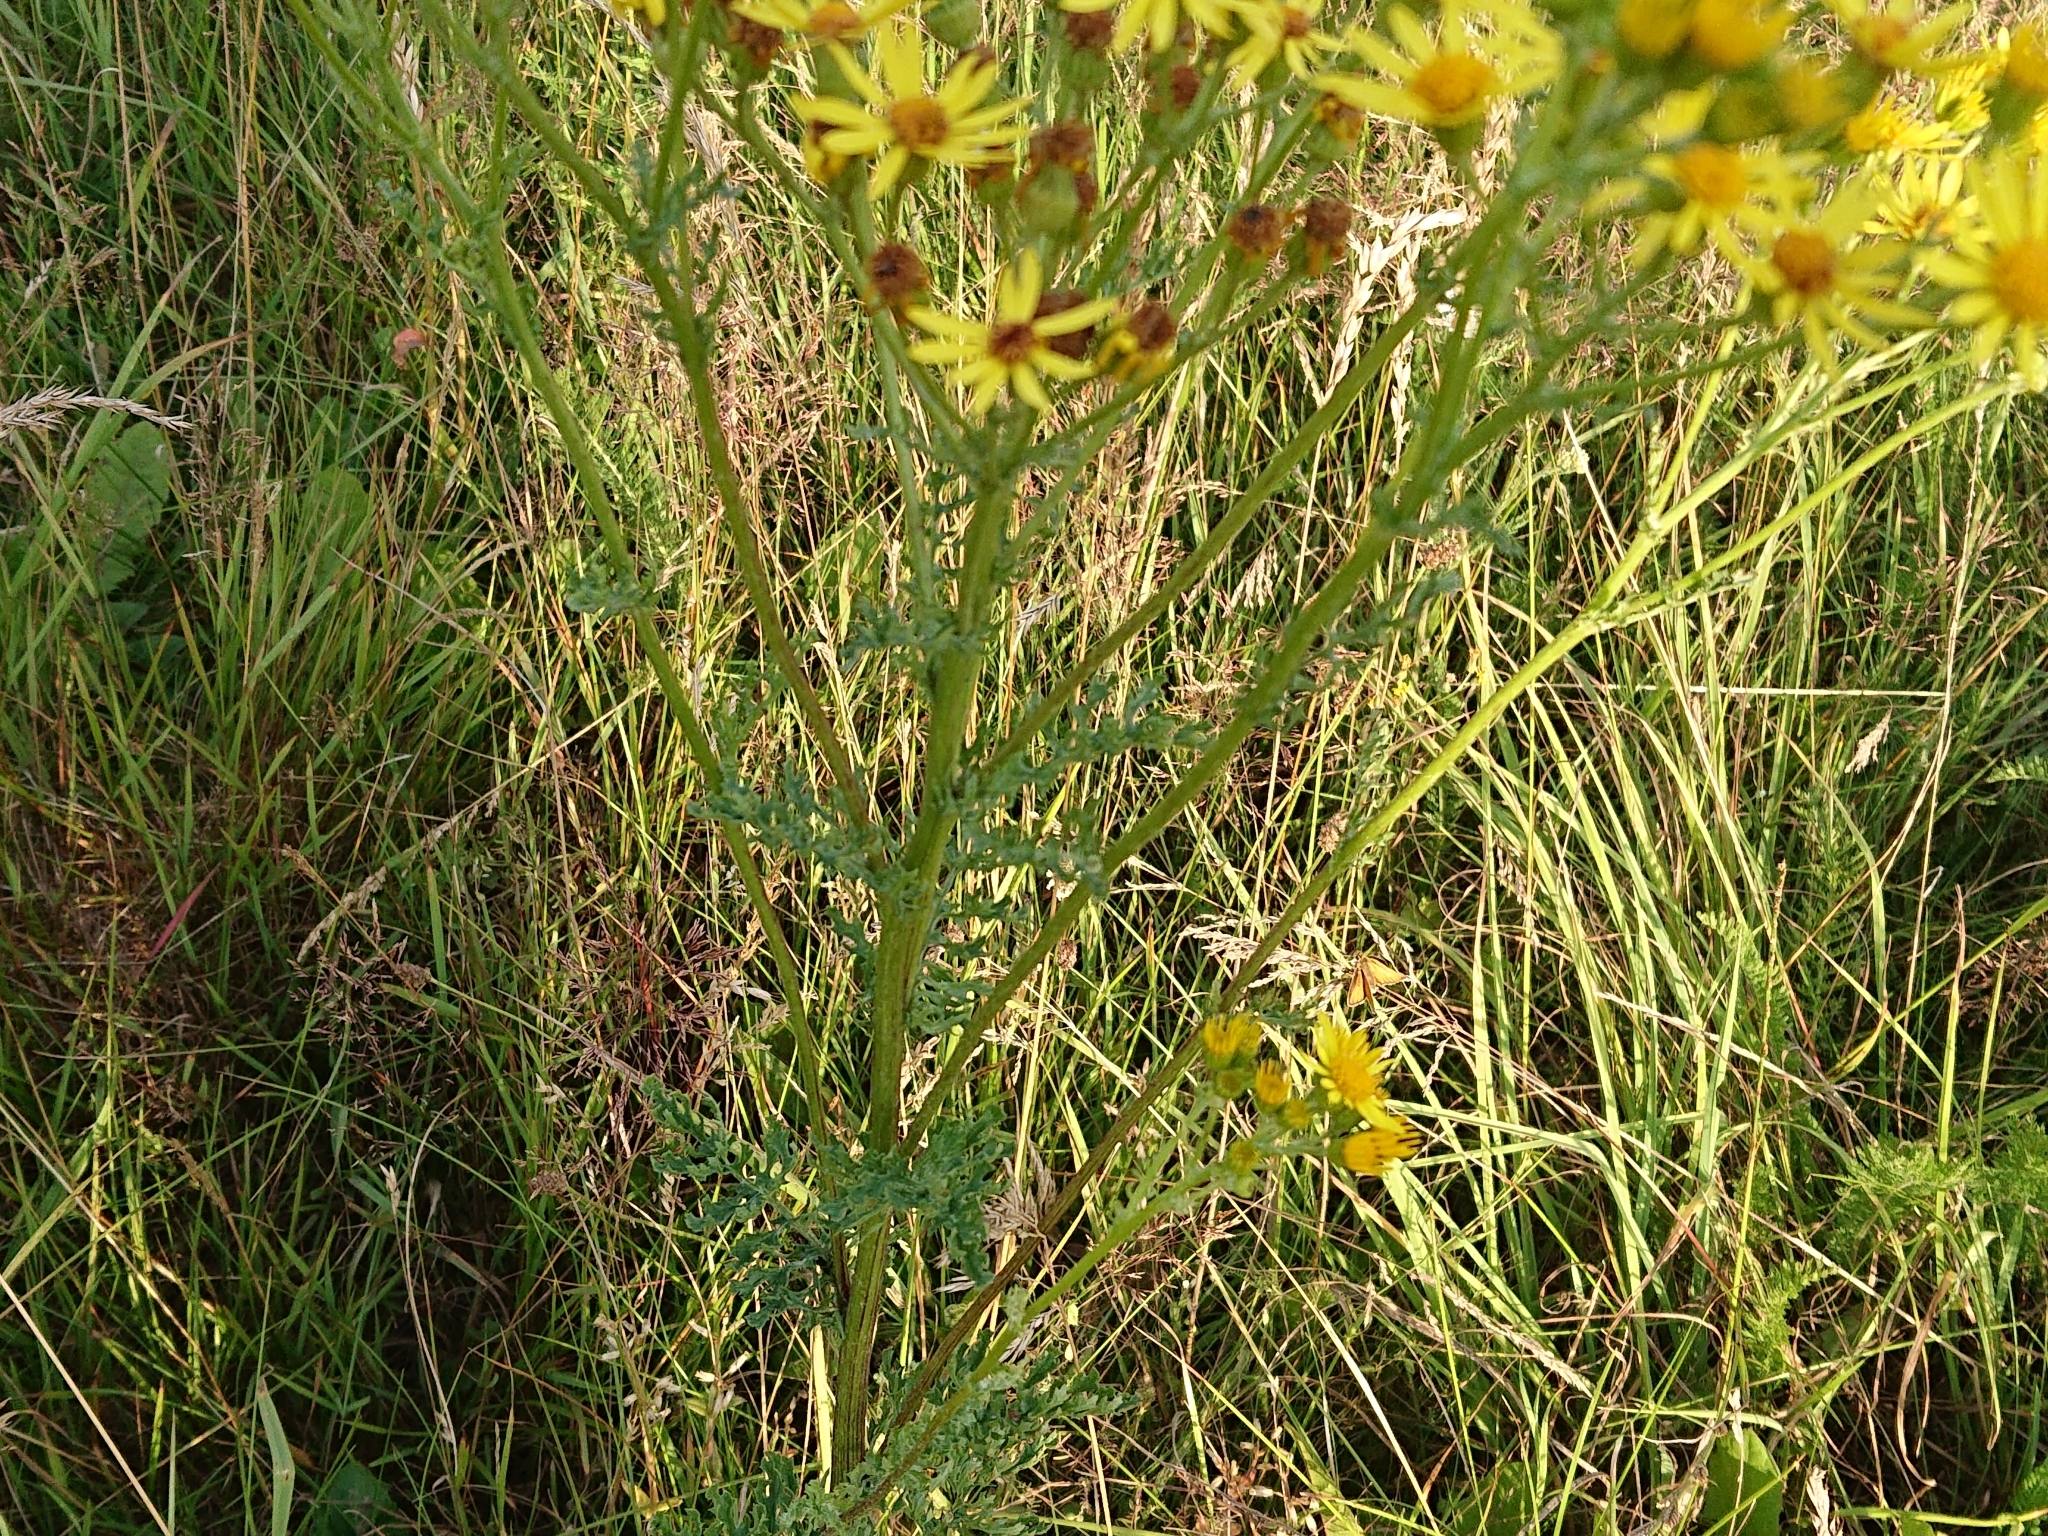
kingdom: Plantae
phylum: Tracheophyta
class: Magnoliopsida
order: Asterales
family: Asteraceae
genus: Jacobaea
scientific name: Jacobaea vulgaris
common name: Stinking willie
